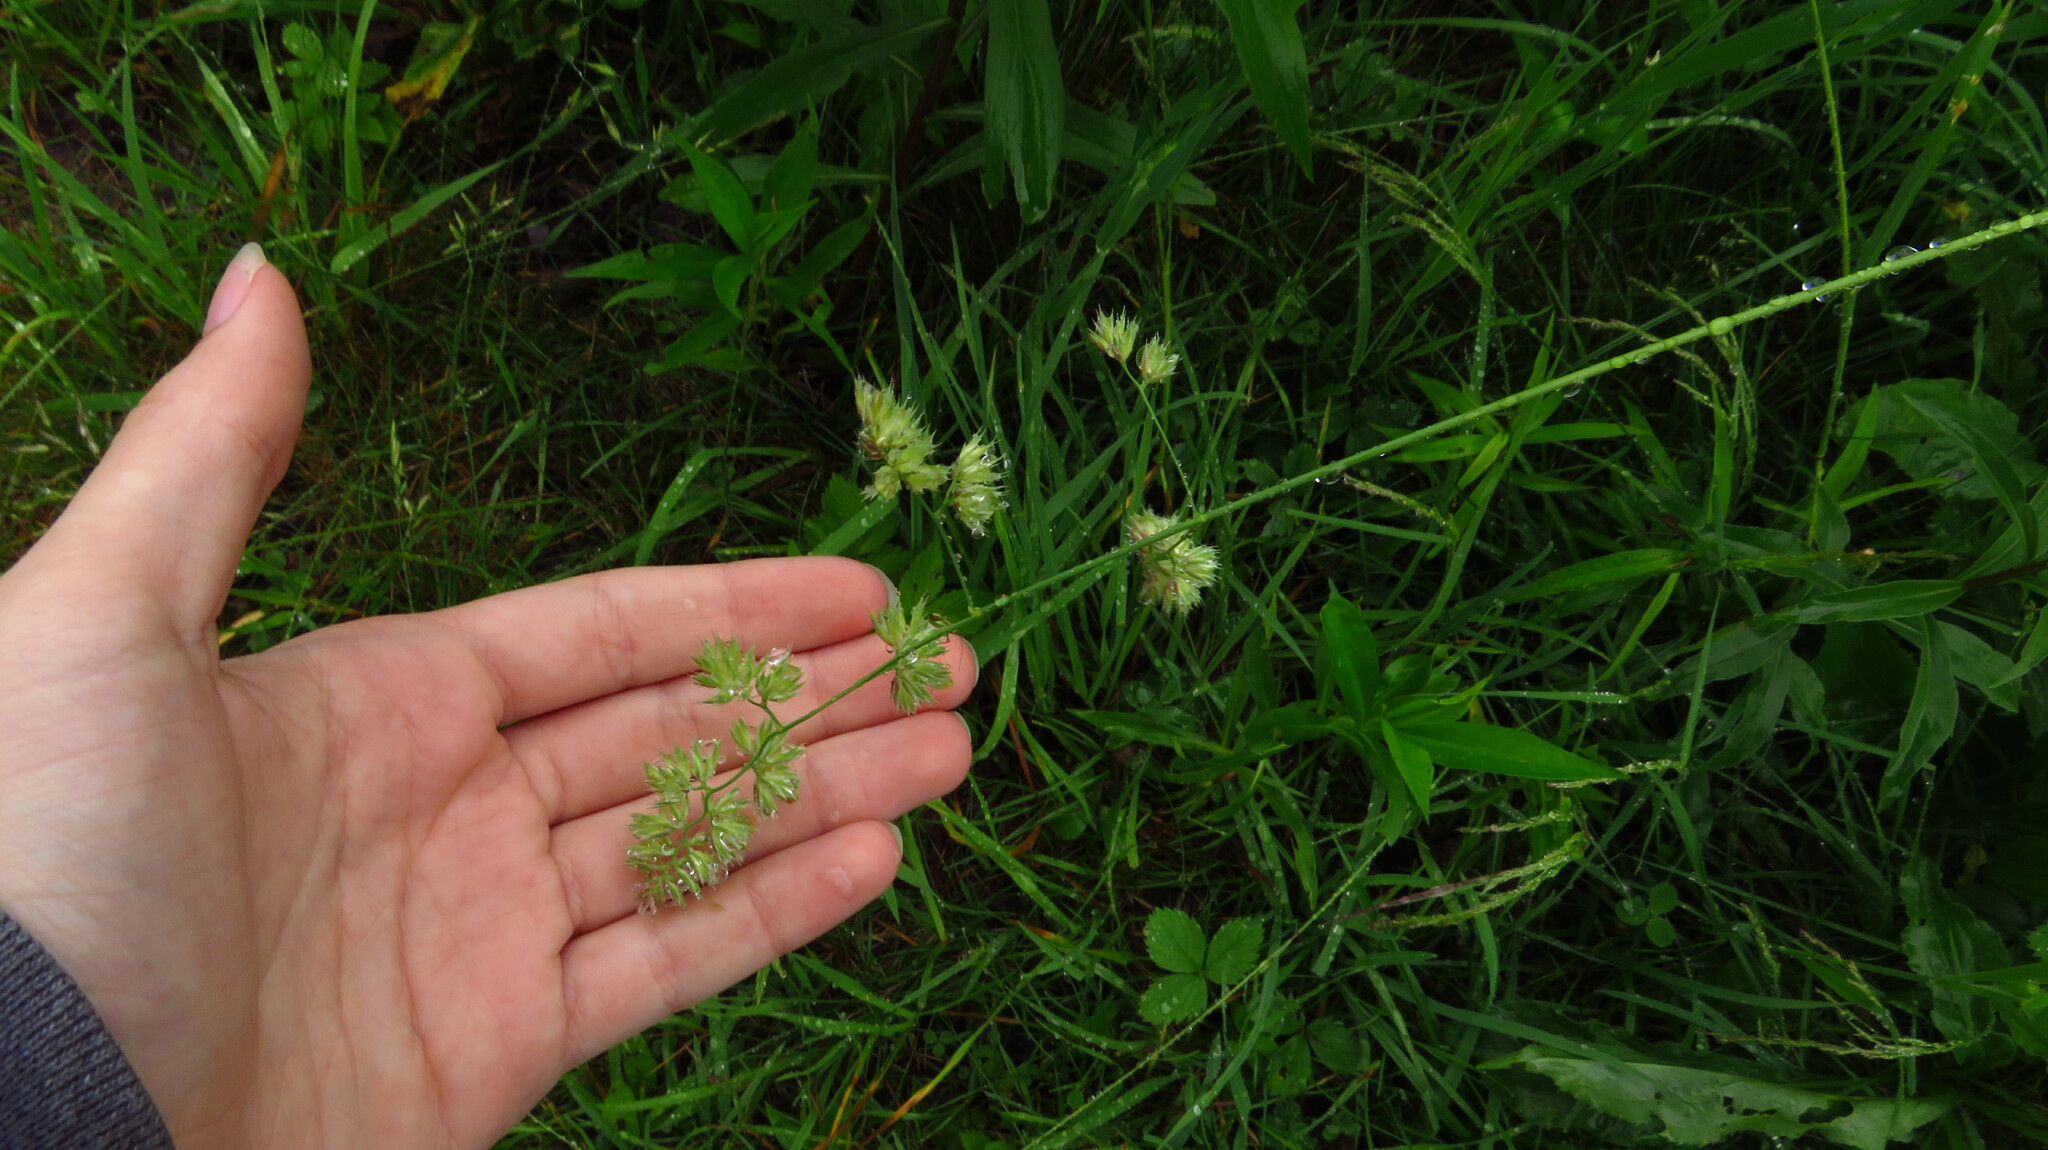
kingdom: Plantae
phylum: Tracheophyta
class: Liliopsida
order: Poales
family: Poaceae
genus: Dactylis
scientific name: Dactylis glomerata
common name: Orchardgrass
